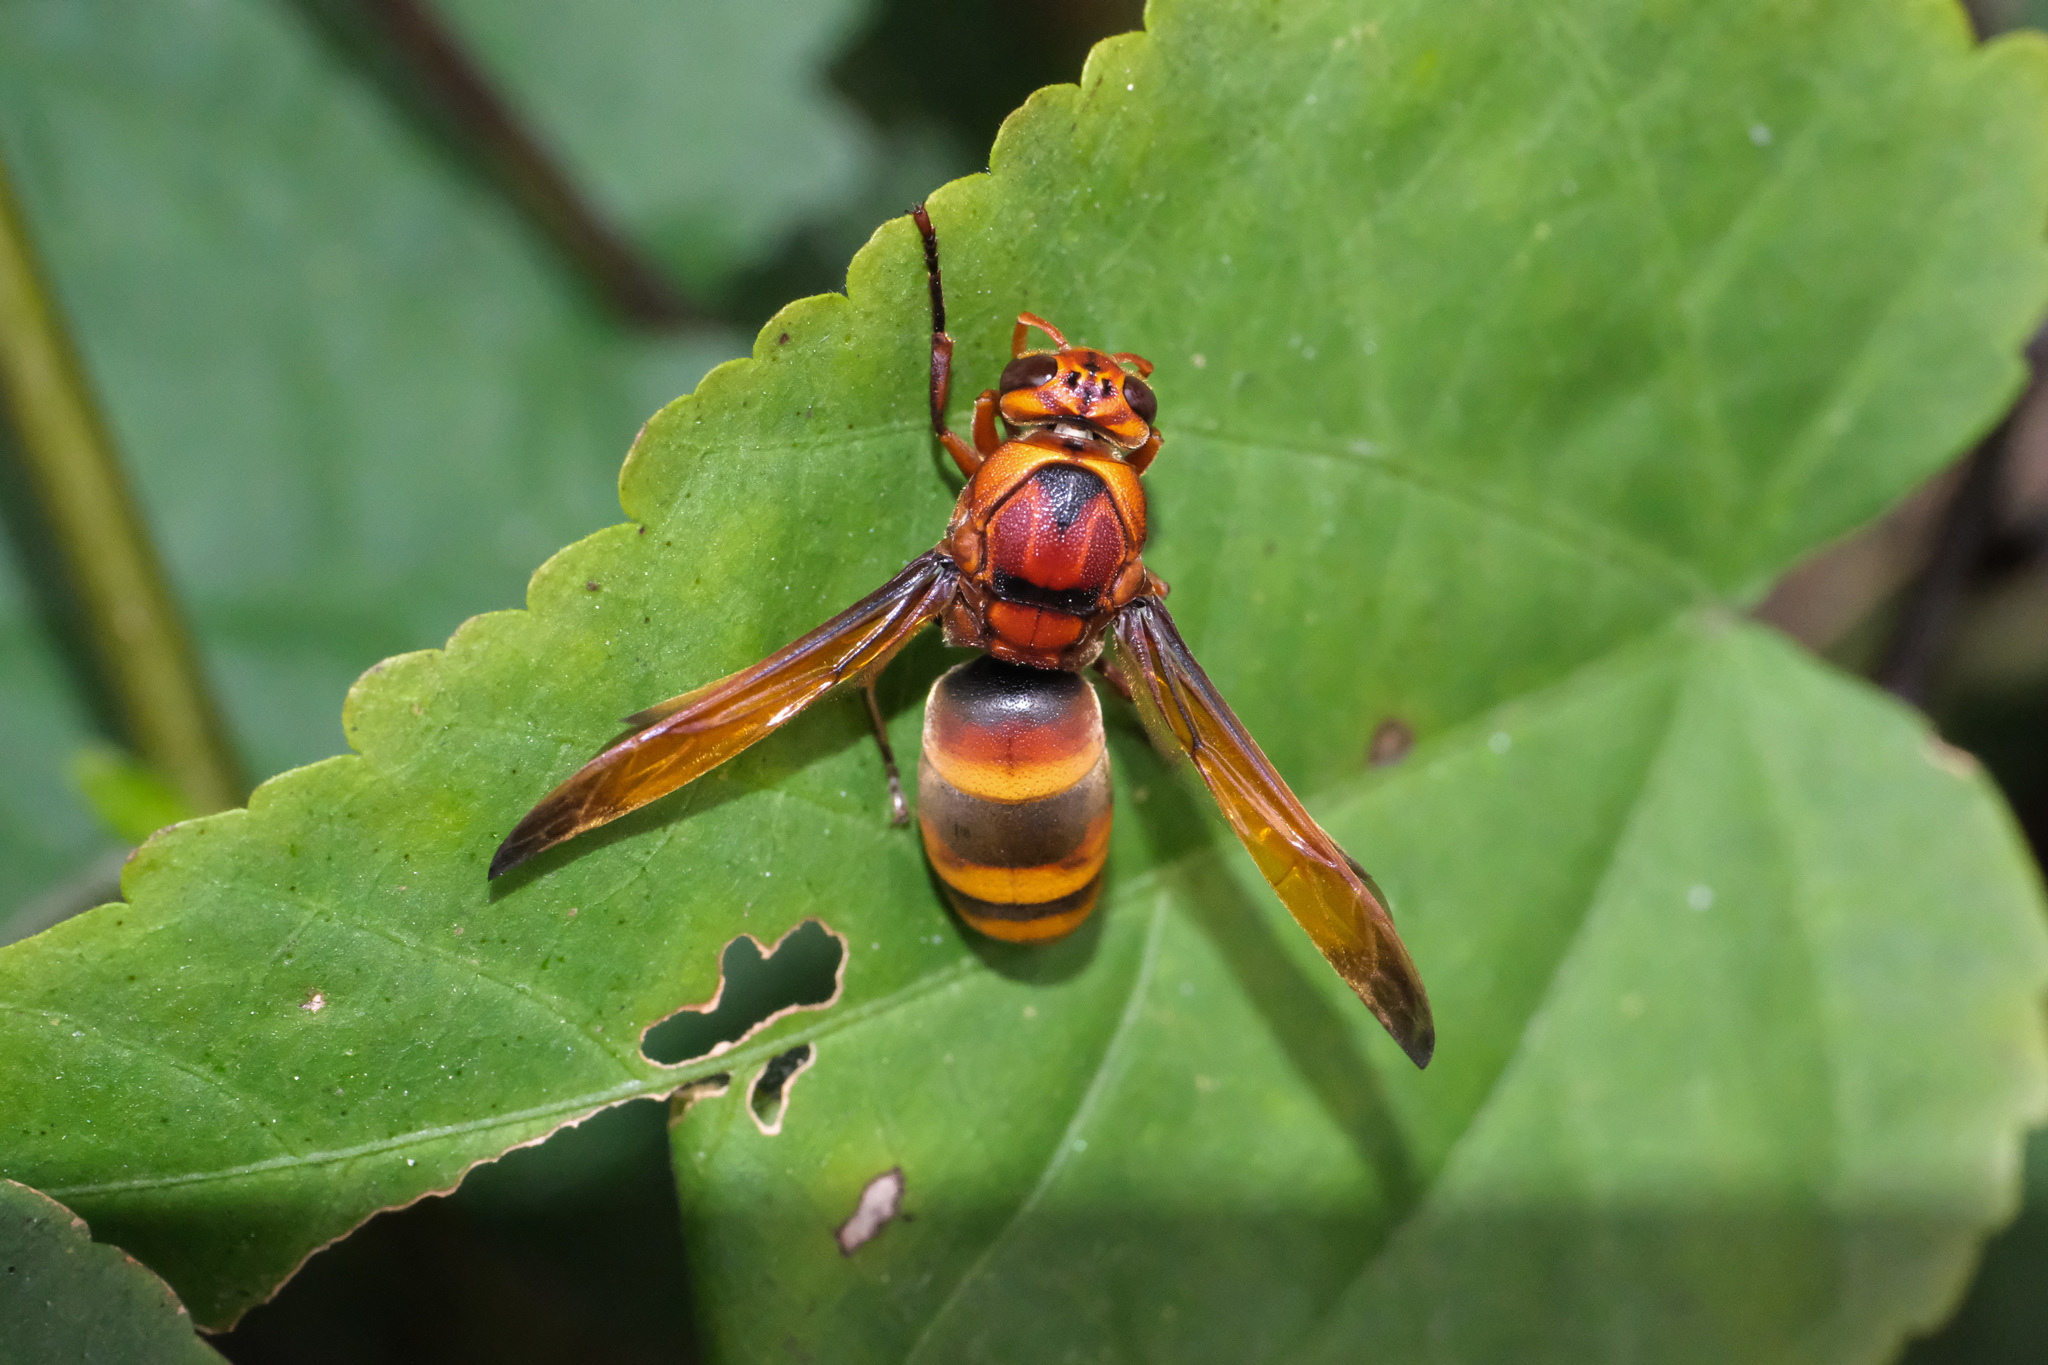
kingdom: Animalia
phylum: Arthropoda
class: Insecta
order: Hymenoptera
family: Eumenidae
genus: Rhynchium
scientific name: Rhynchium quinquecinctum
